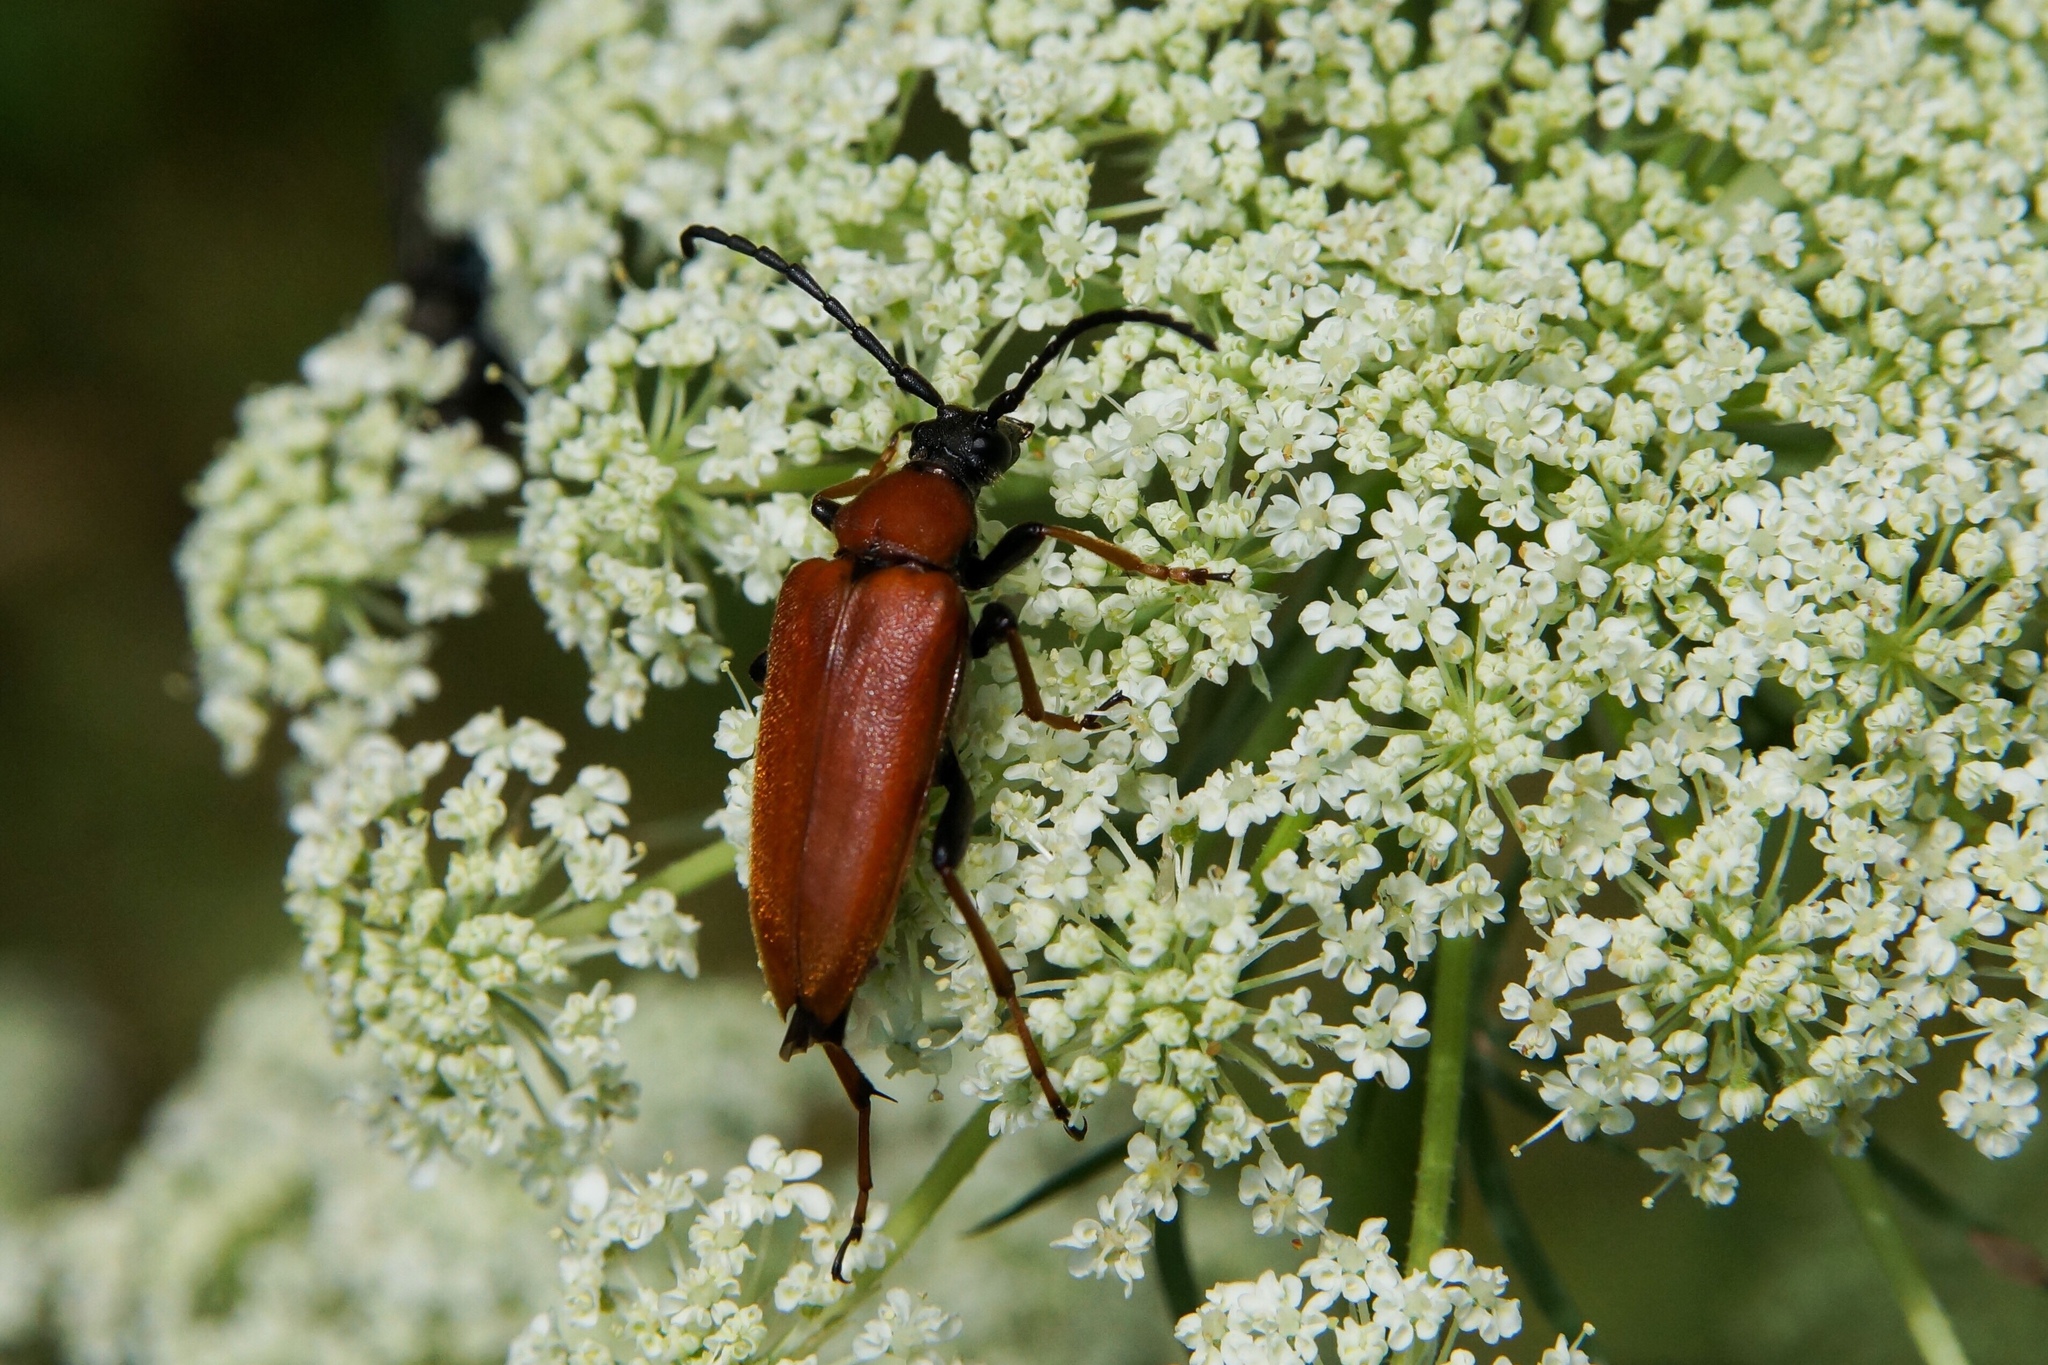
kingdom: Animalia
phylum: Arthropoda
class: Insecta
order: Coleoptera
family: Cerambycidae
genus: Stictoleptura
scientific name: Stictoleptura rubra
